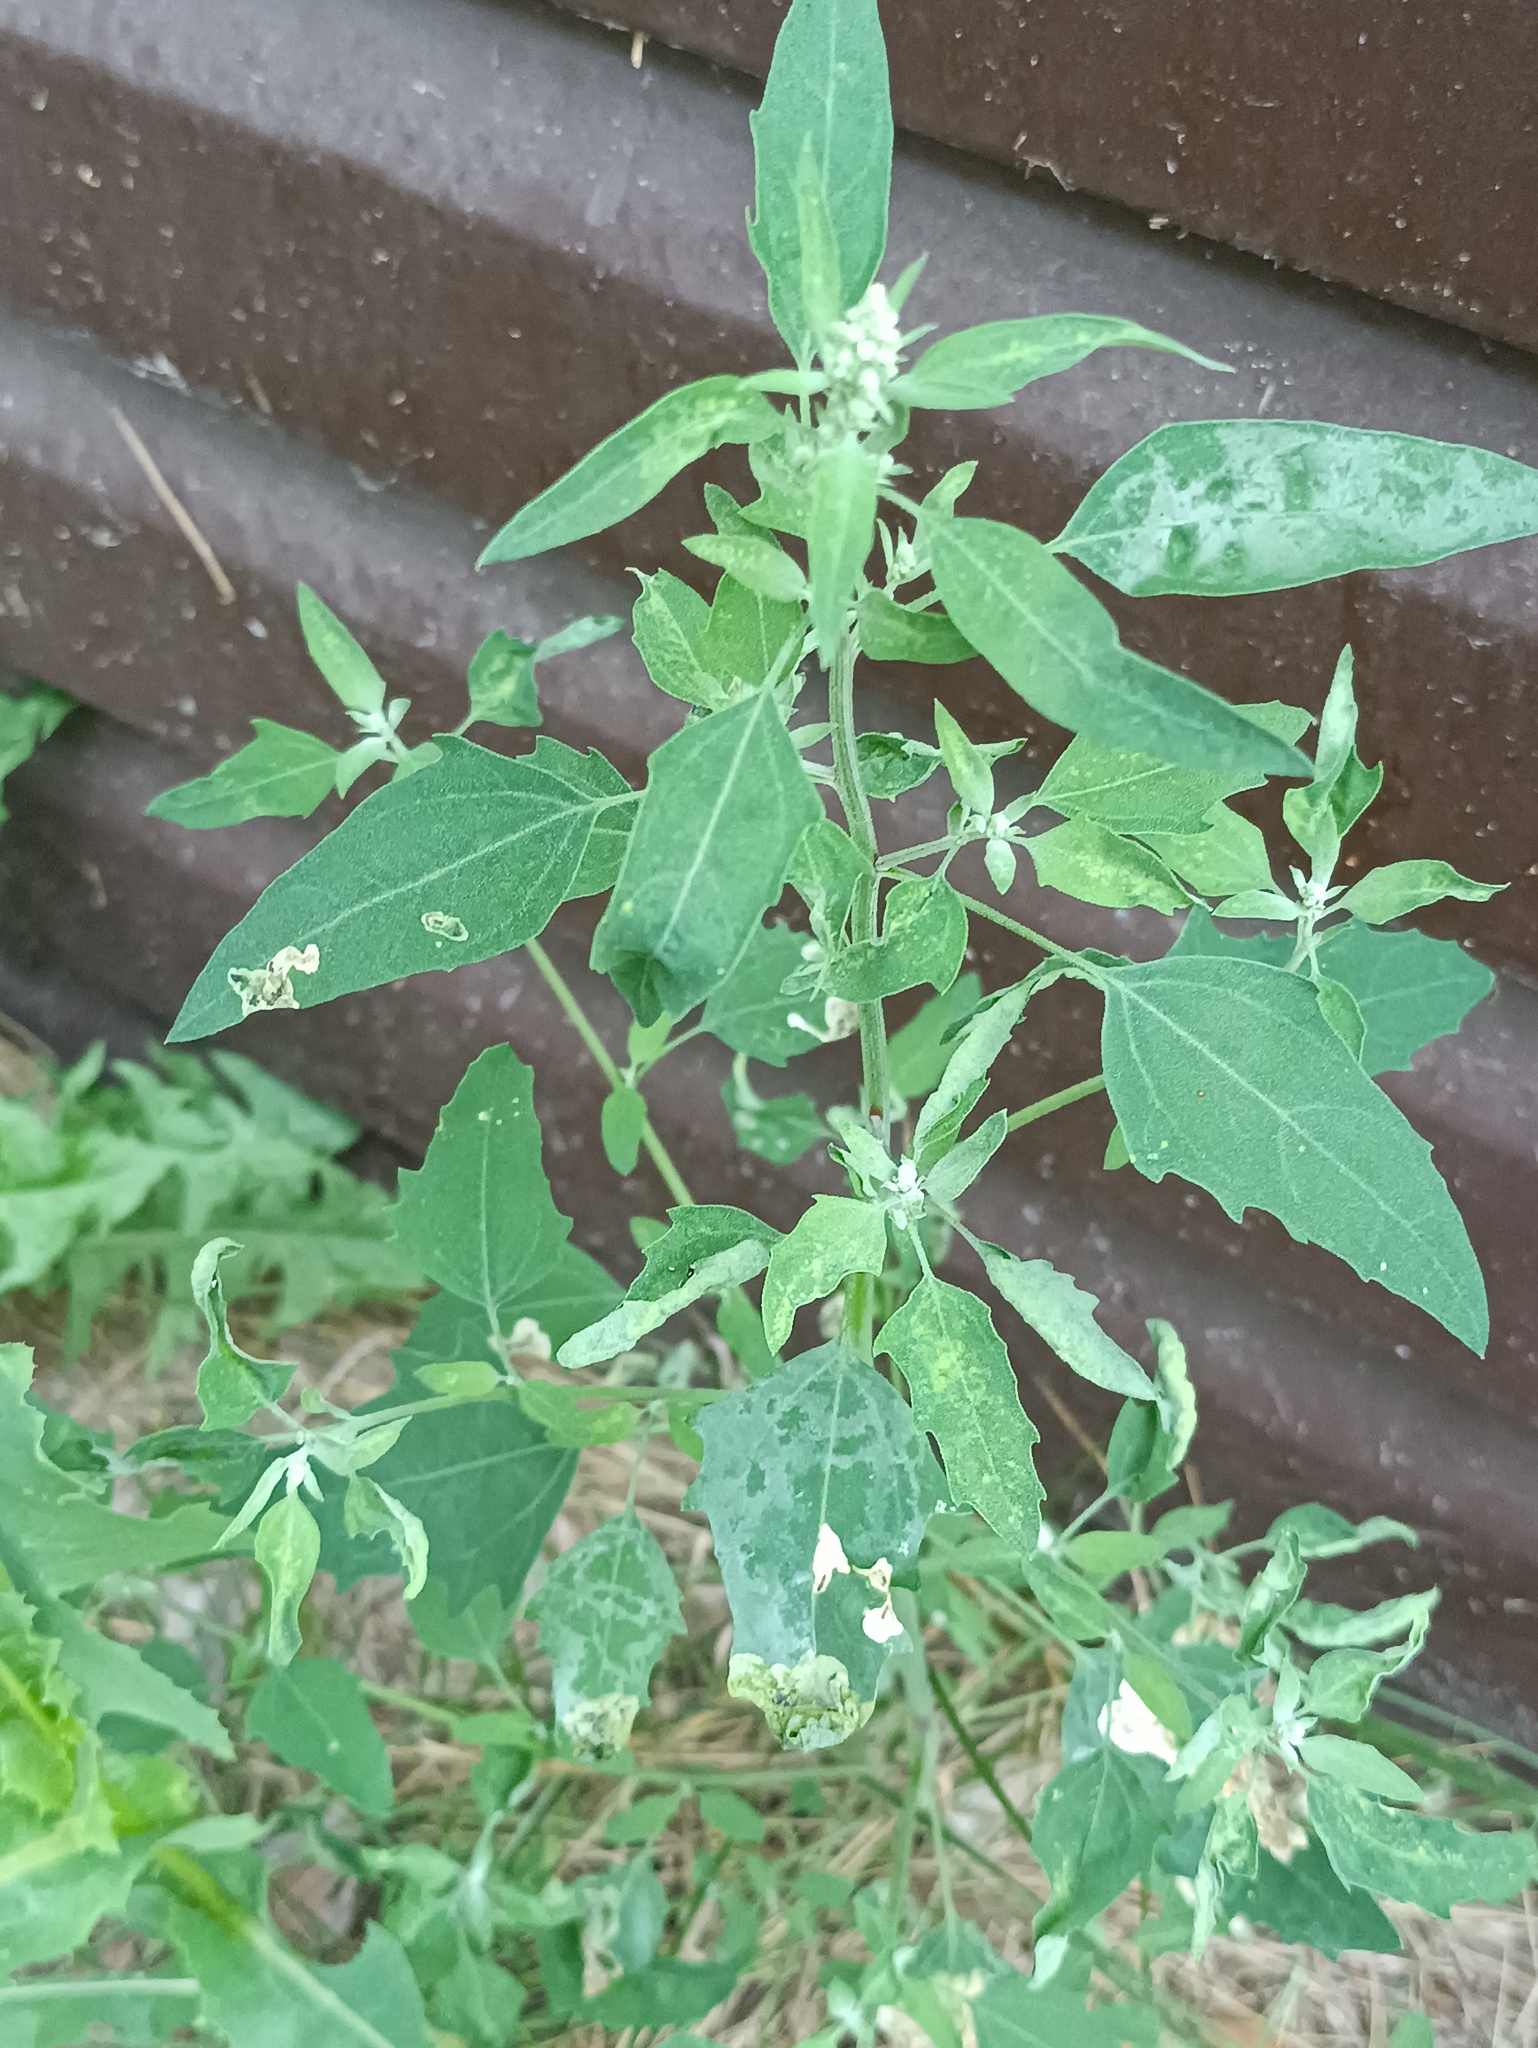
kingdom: Plantae
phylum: Tracheophyta
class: Magnoliopsida
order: Caryophyllales
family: Amaranthaceae
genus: Chenopodium
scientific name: Chenopodium album
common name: Fat-hen
